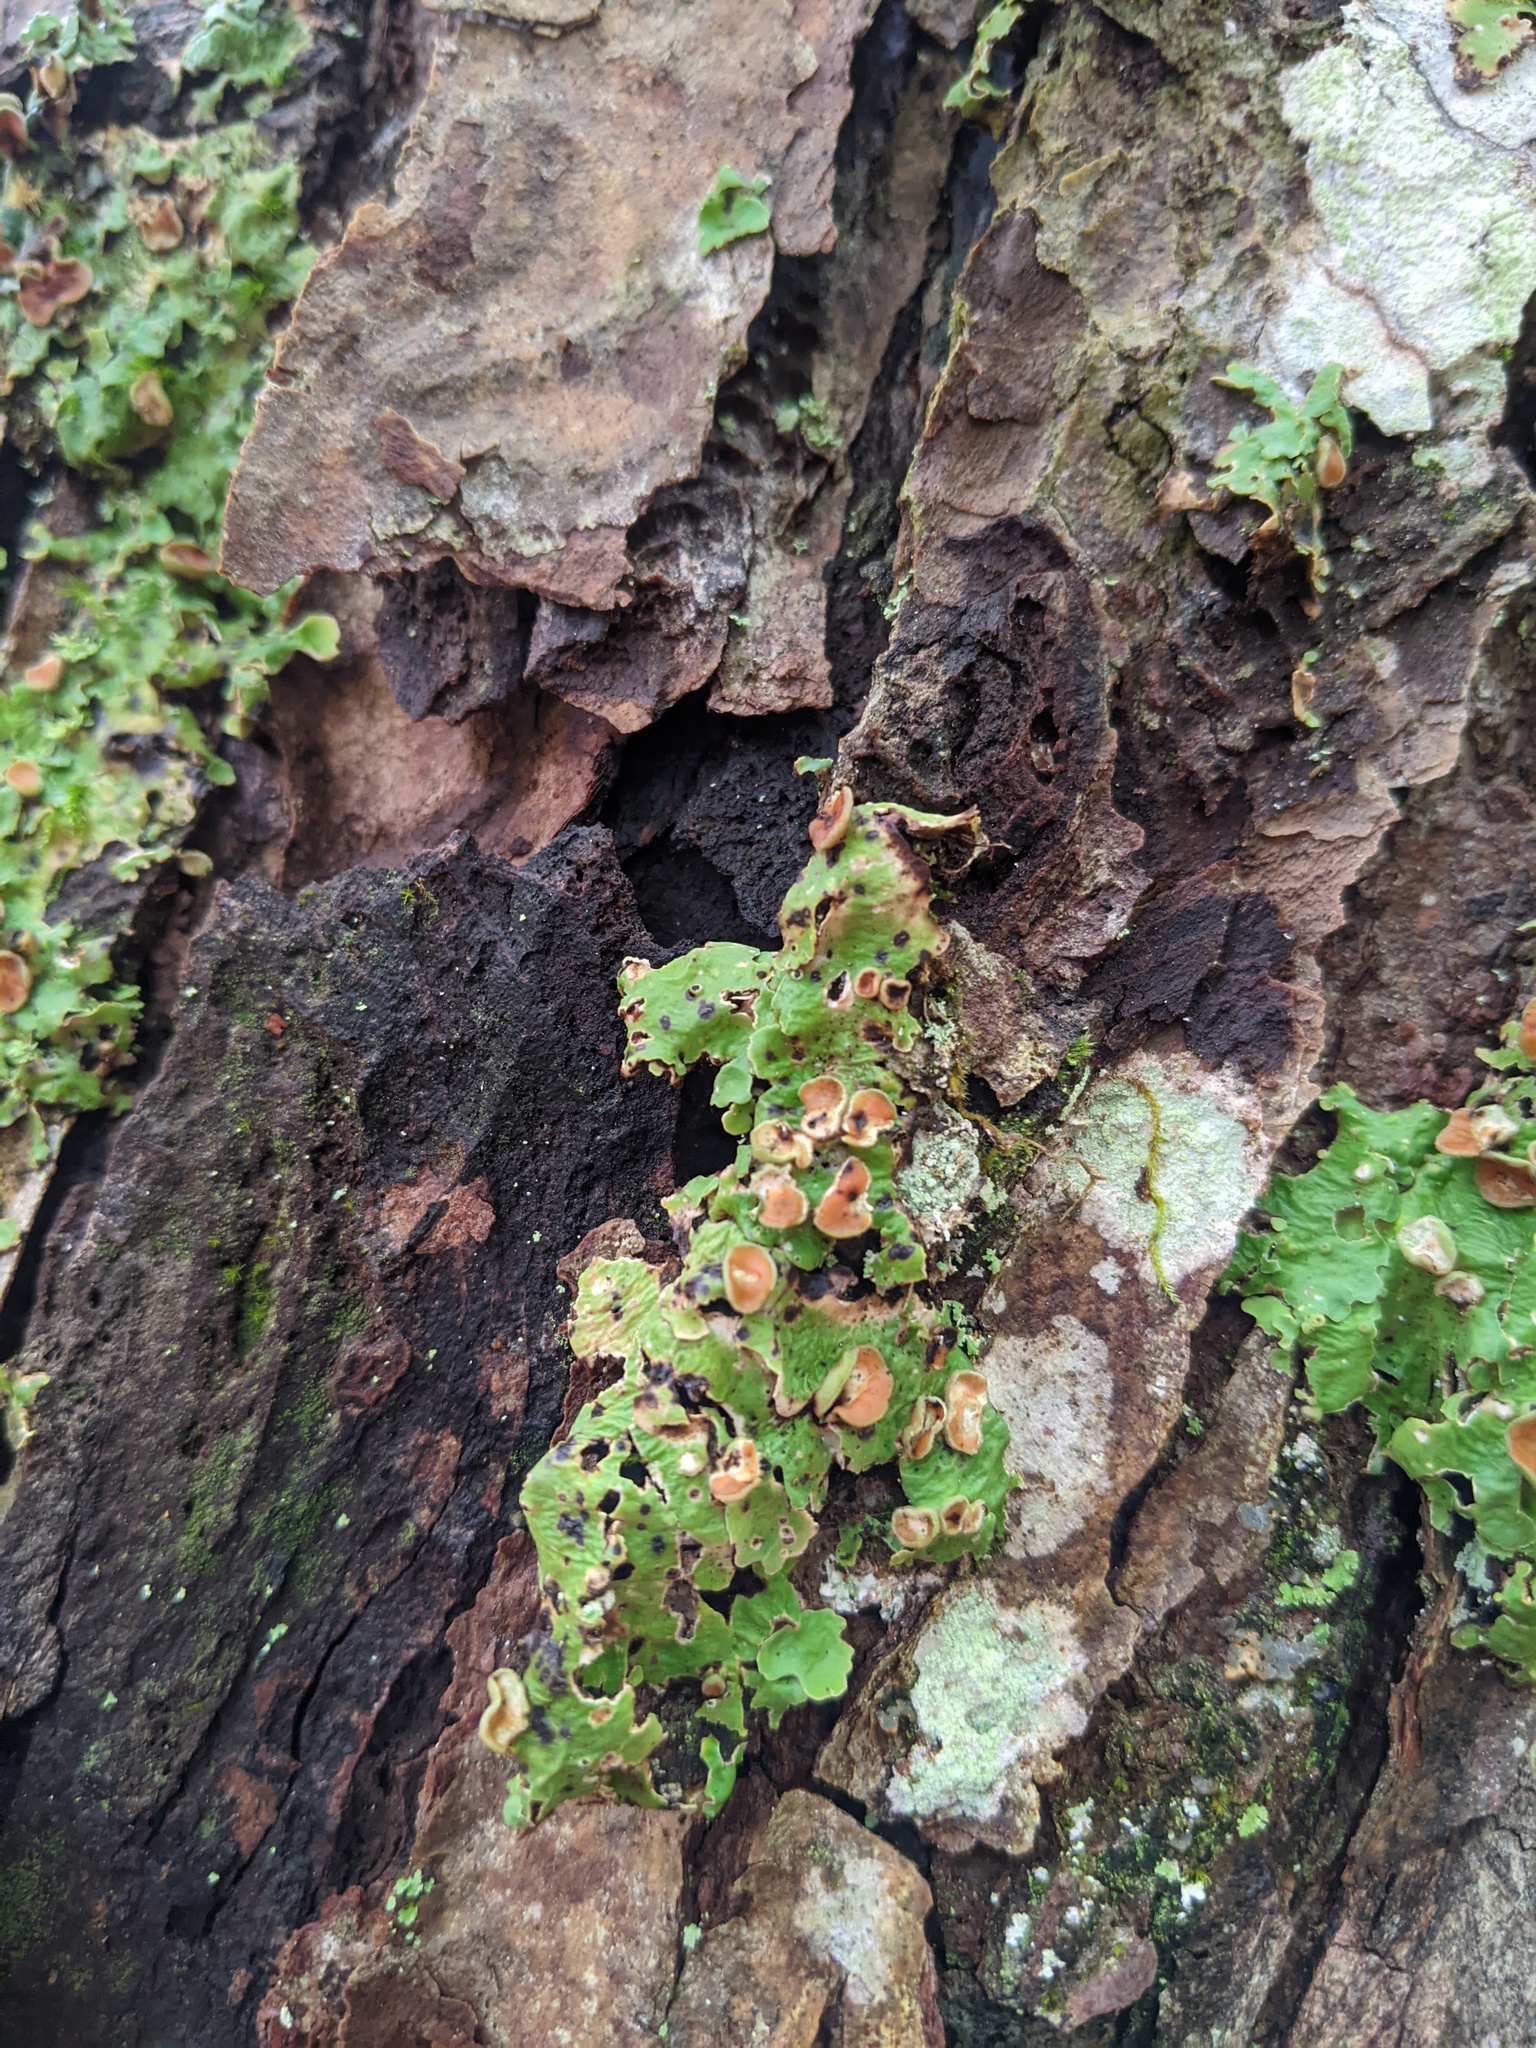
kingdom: Fungi
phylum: Ascomycota
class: Lecanoromycetes
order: Peltigerales
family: Lobariaceae
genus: Lobaria
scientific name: Lobaria pulmonaria
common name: Lungwort
